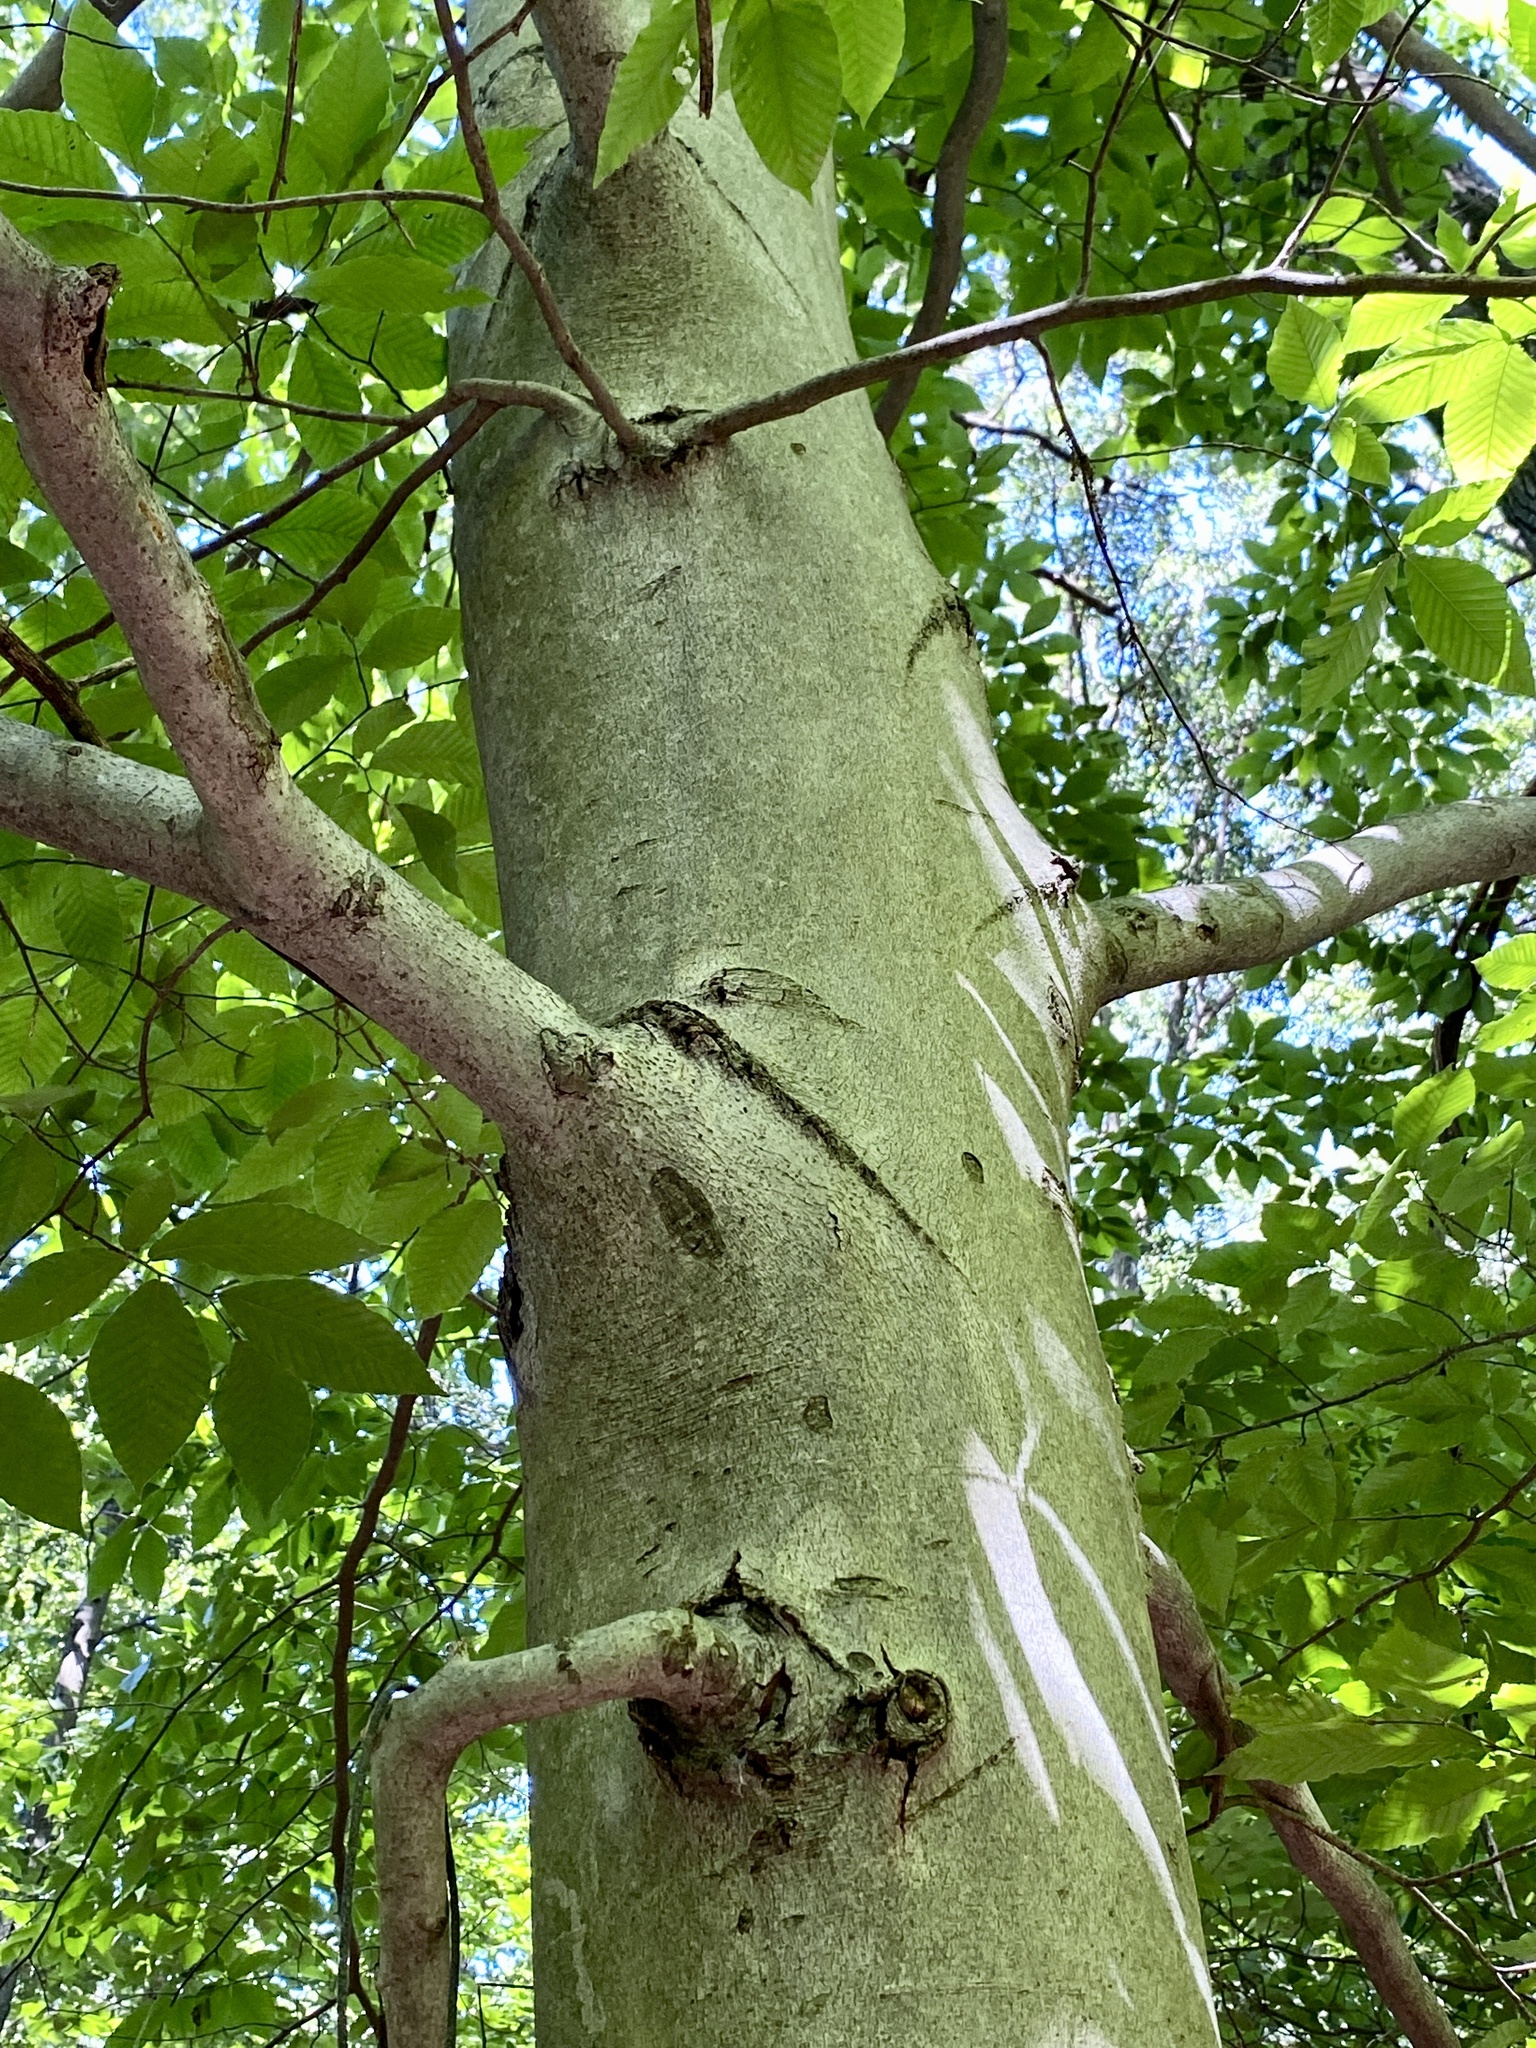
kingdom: Plantae
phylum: Tracheophyta
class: Magnoliopsida
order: Fagales
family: Fagaceae
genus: Fagus
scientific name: Fagus grandifolia
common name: American beech
